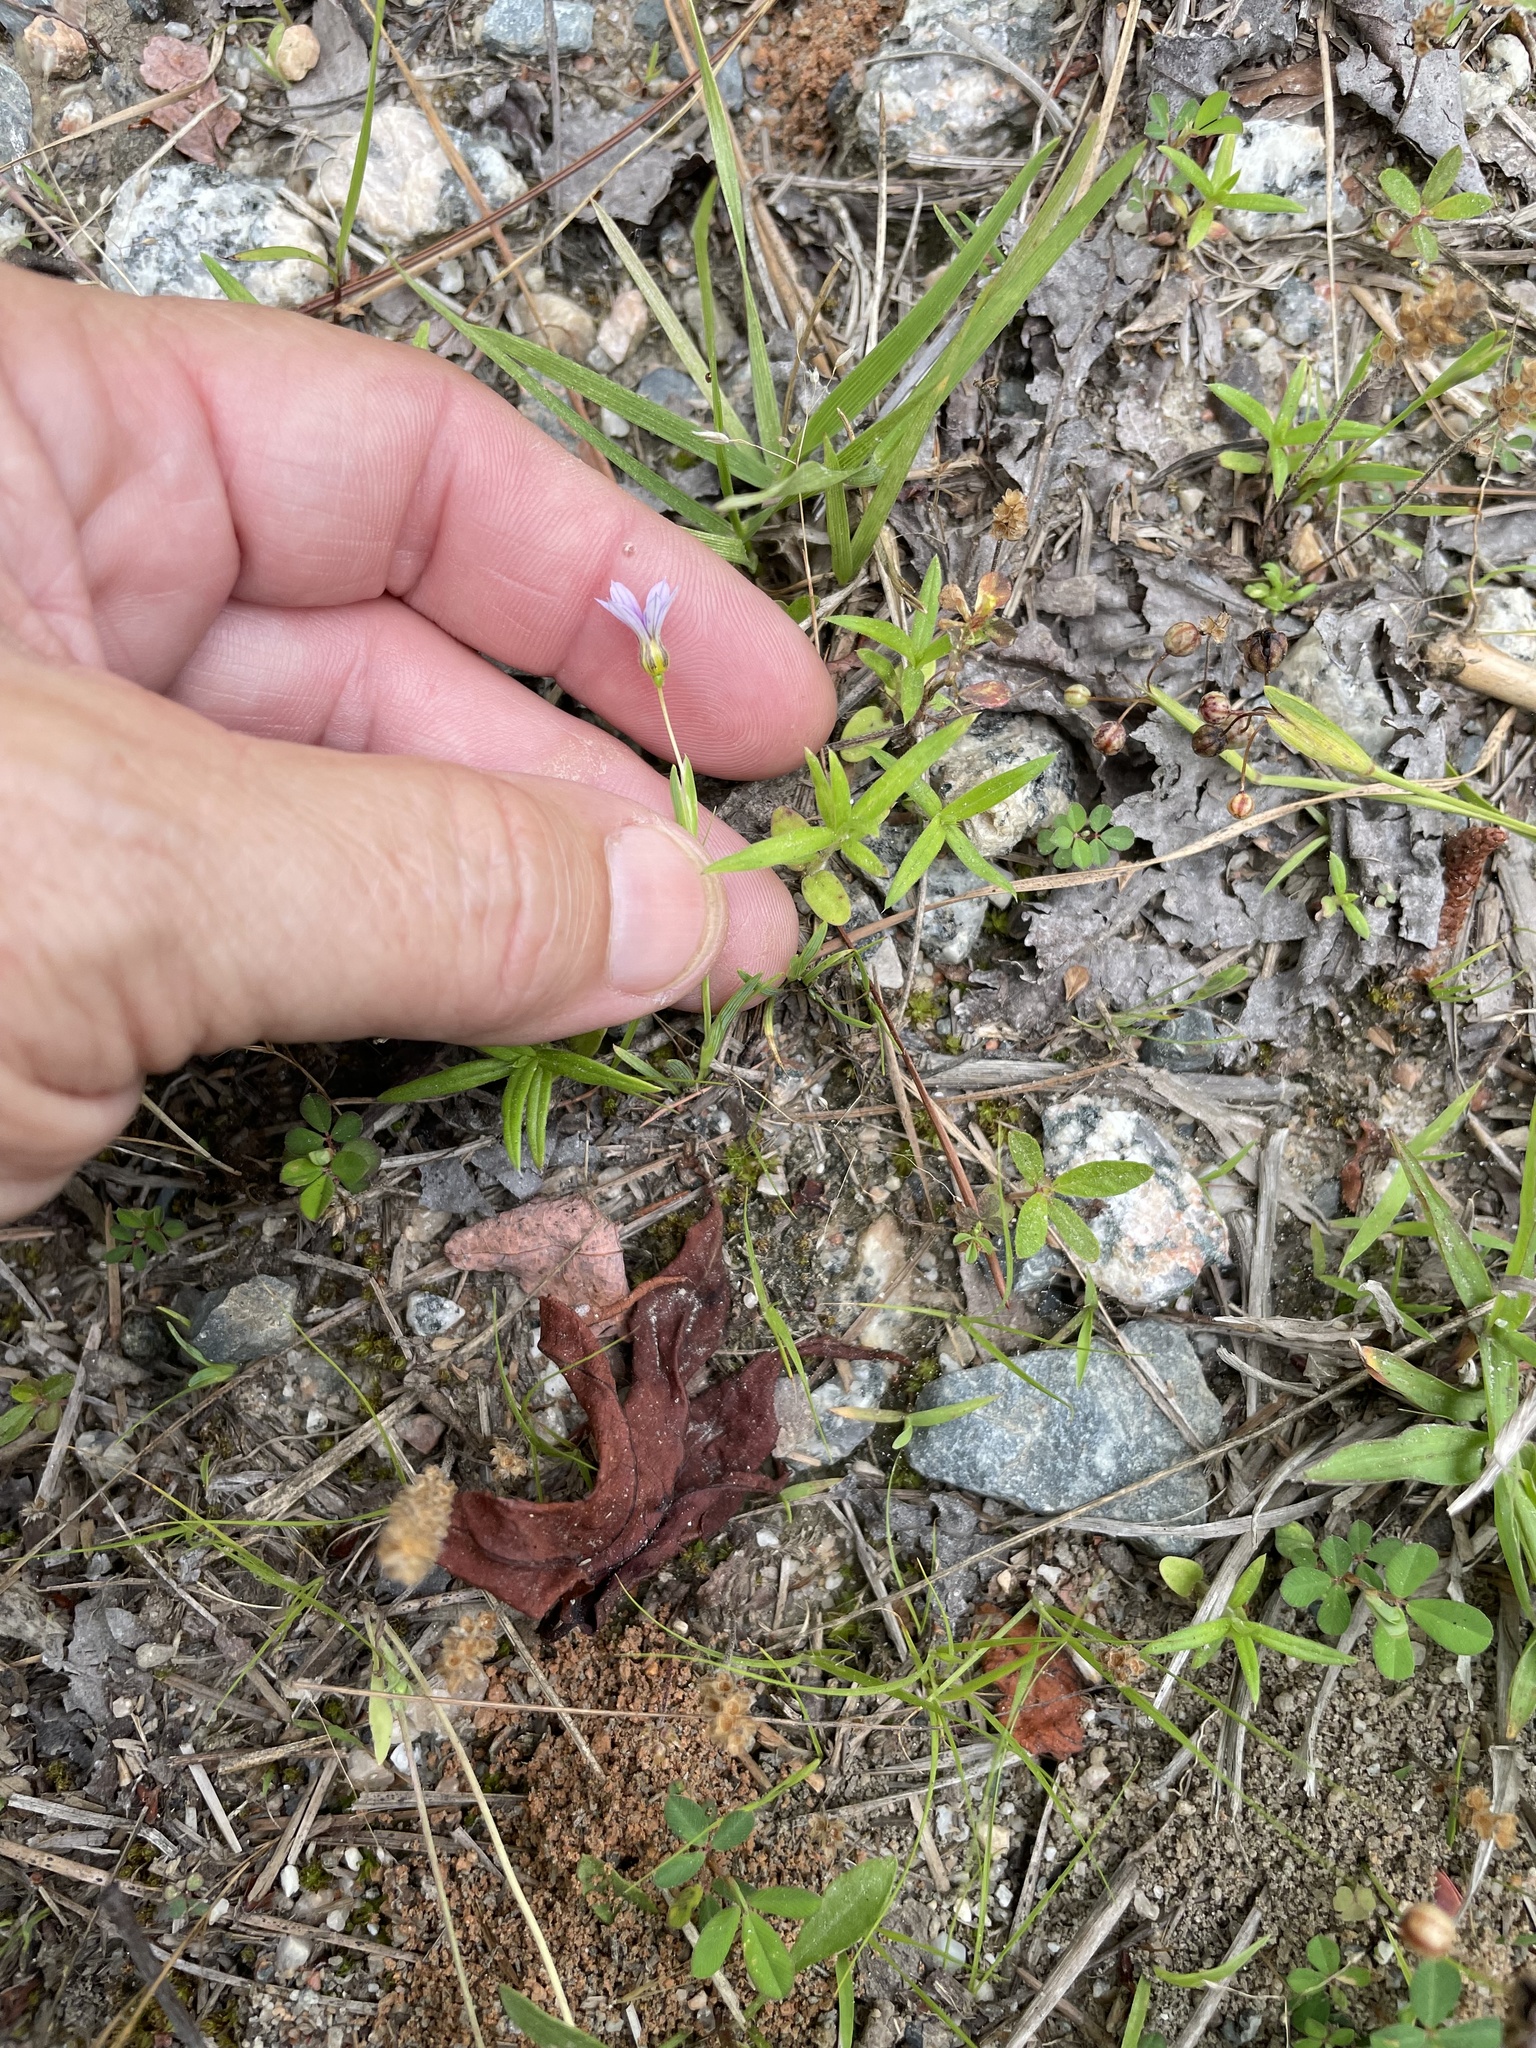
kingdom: Plantae
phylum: Tracheophyta
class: Liliopsida
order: Asparagales
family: Iridaceae
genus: Sisyrinchium
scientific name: Sisyrinchium micranthum
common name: Bermuda pigroot
